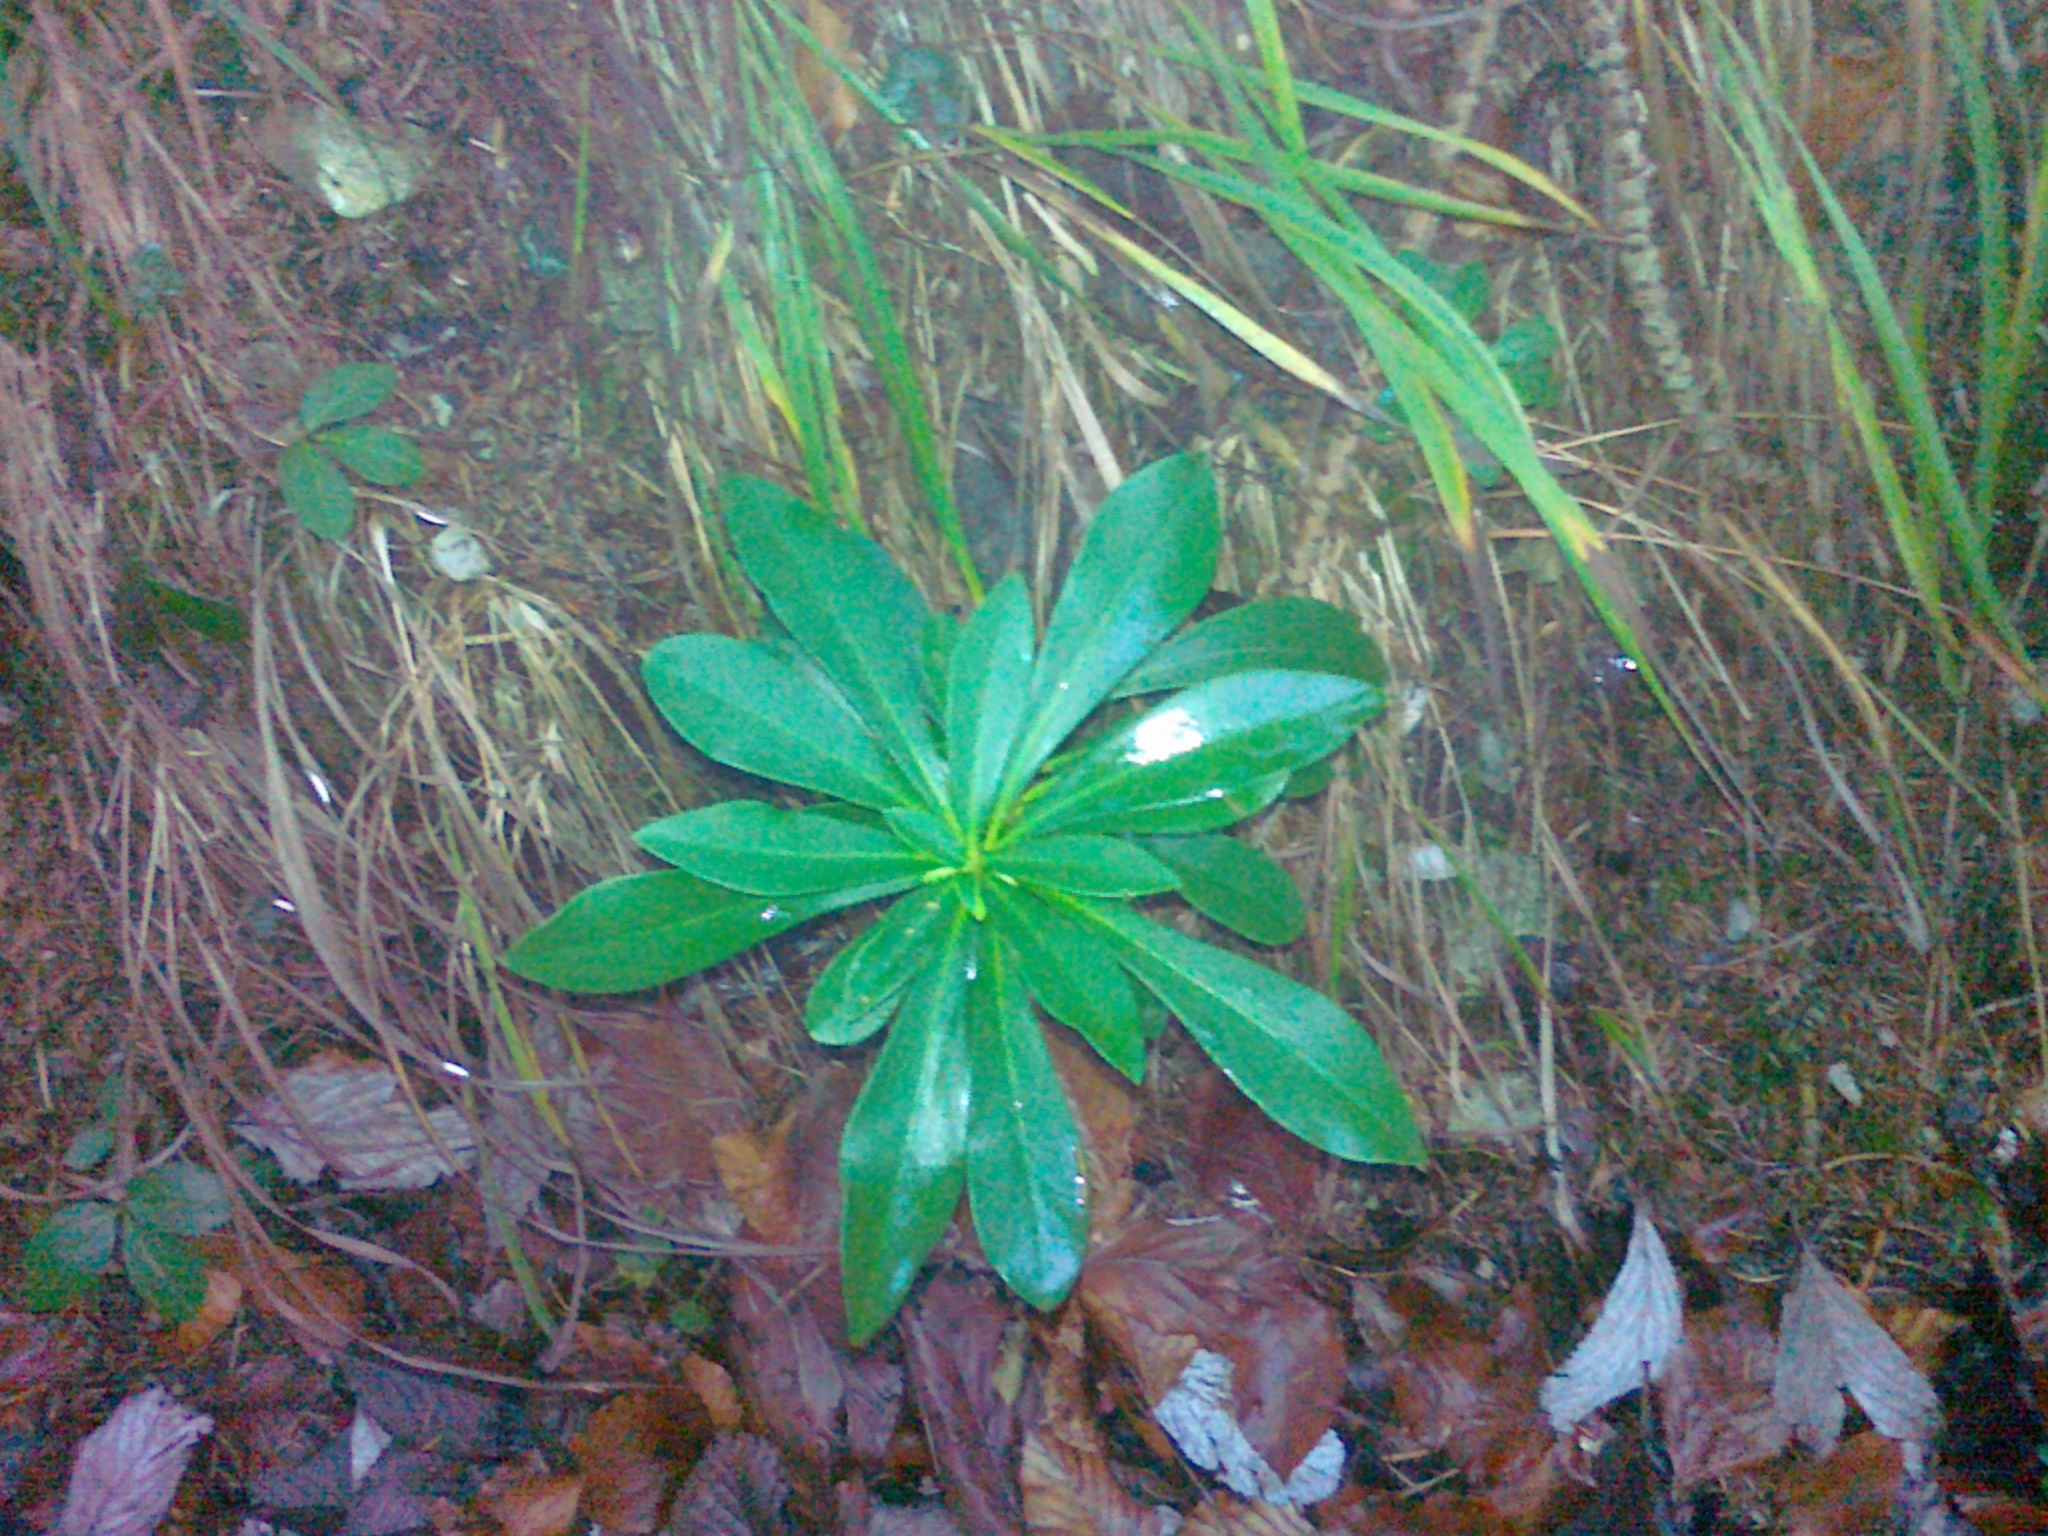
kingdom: Plantae
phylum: Tracheophyta
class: Magnoliopsida
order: Malvales
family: Thymelaeaceae
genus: Daphne
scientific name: Daphne laureola
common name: Spurge-laurel
